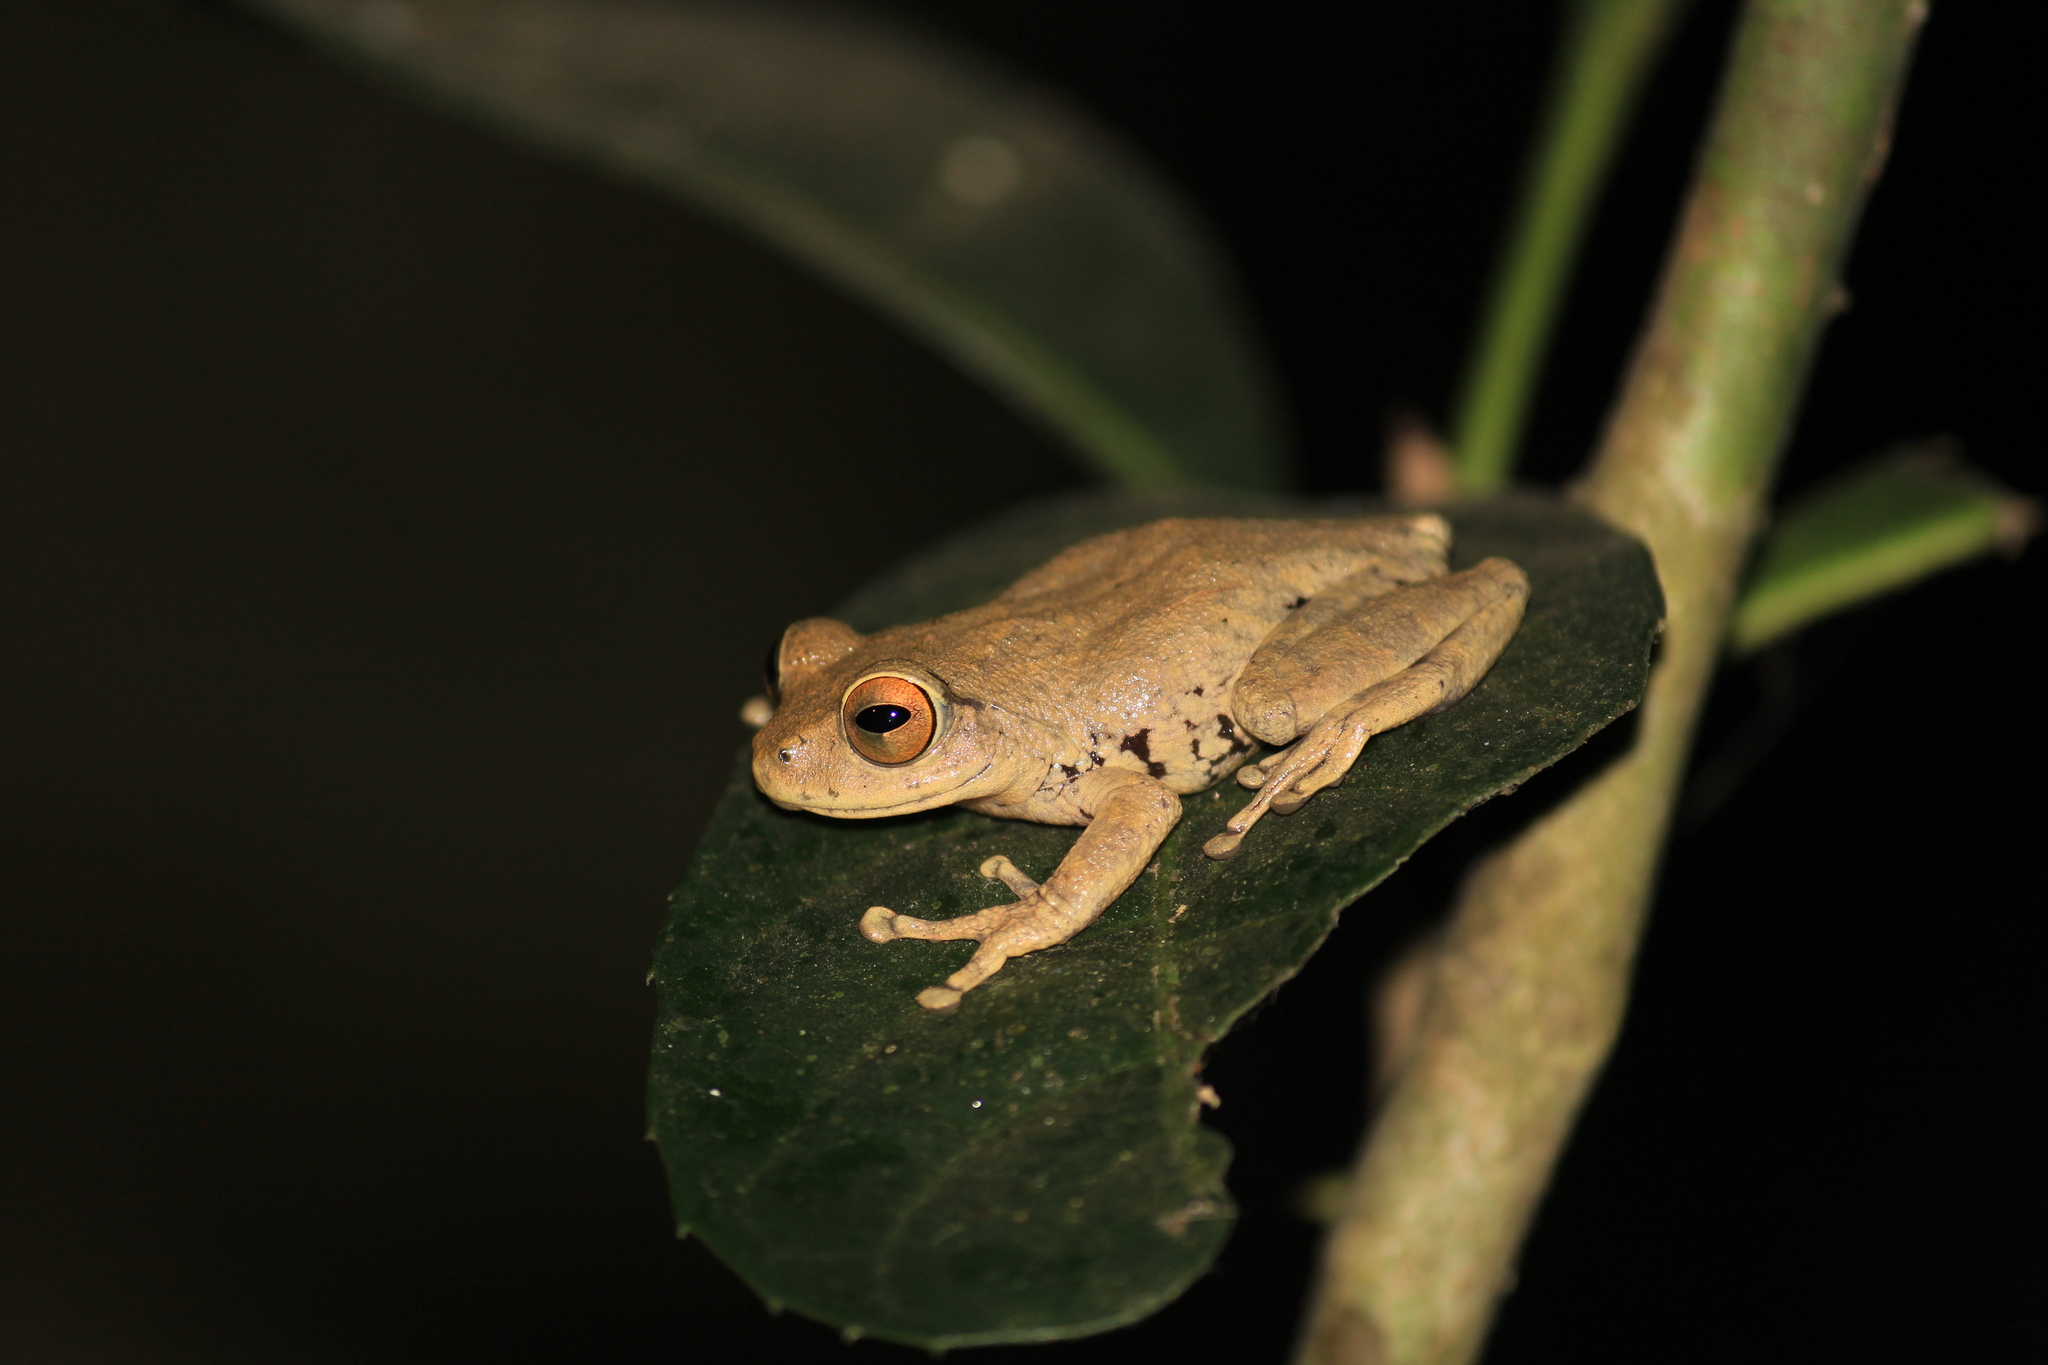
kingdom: Animalia
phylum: Chordata
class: Amphibia
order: Anura
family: Rhacophoridae
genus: Raorchestes
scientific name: Raorchestes ponmudi
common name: Large ponmudi bush frog
